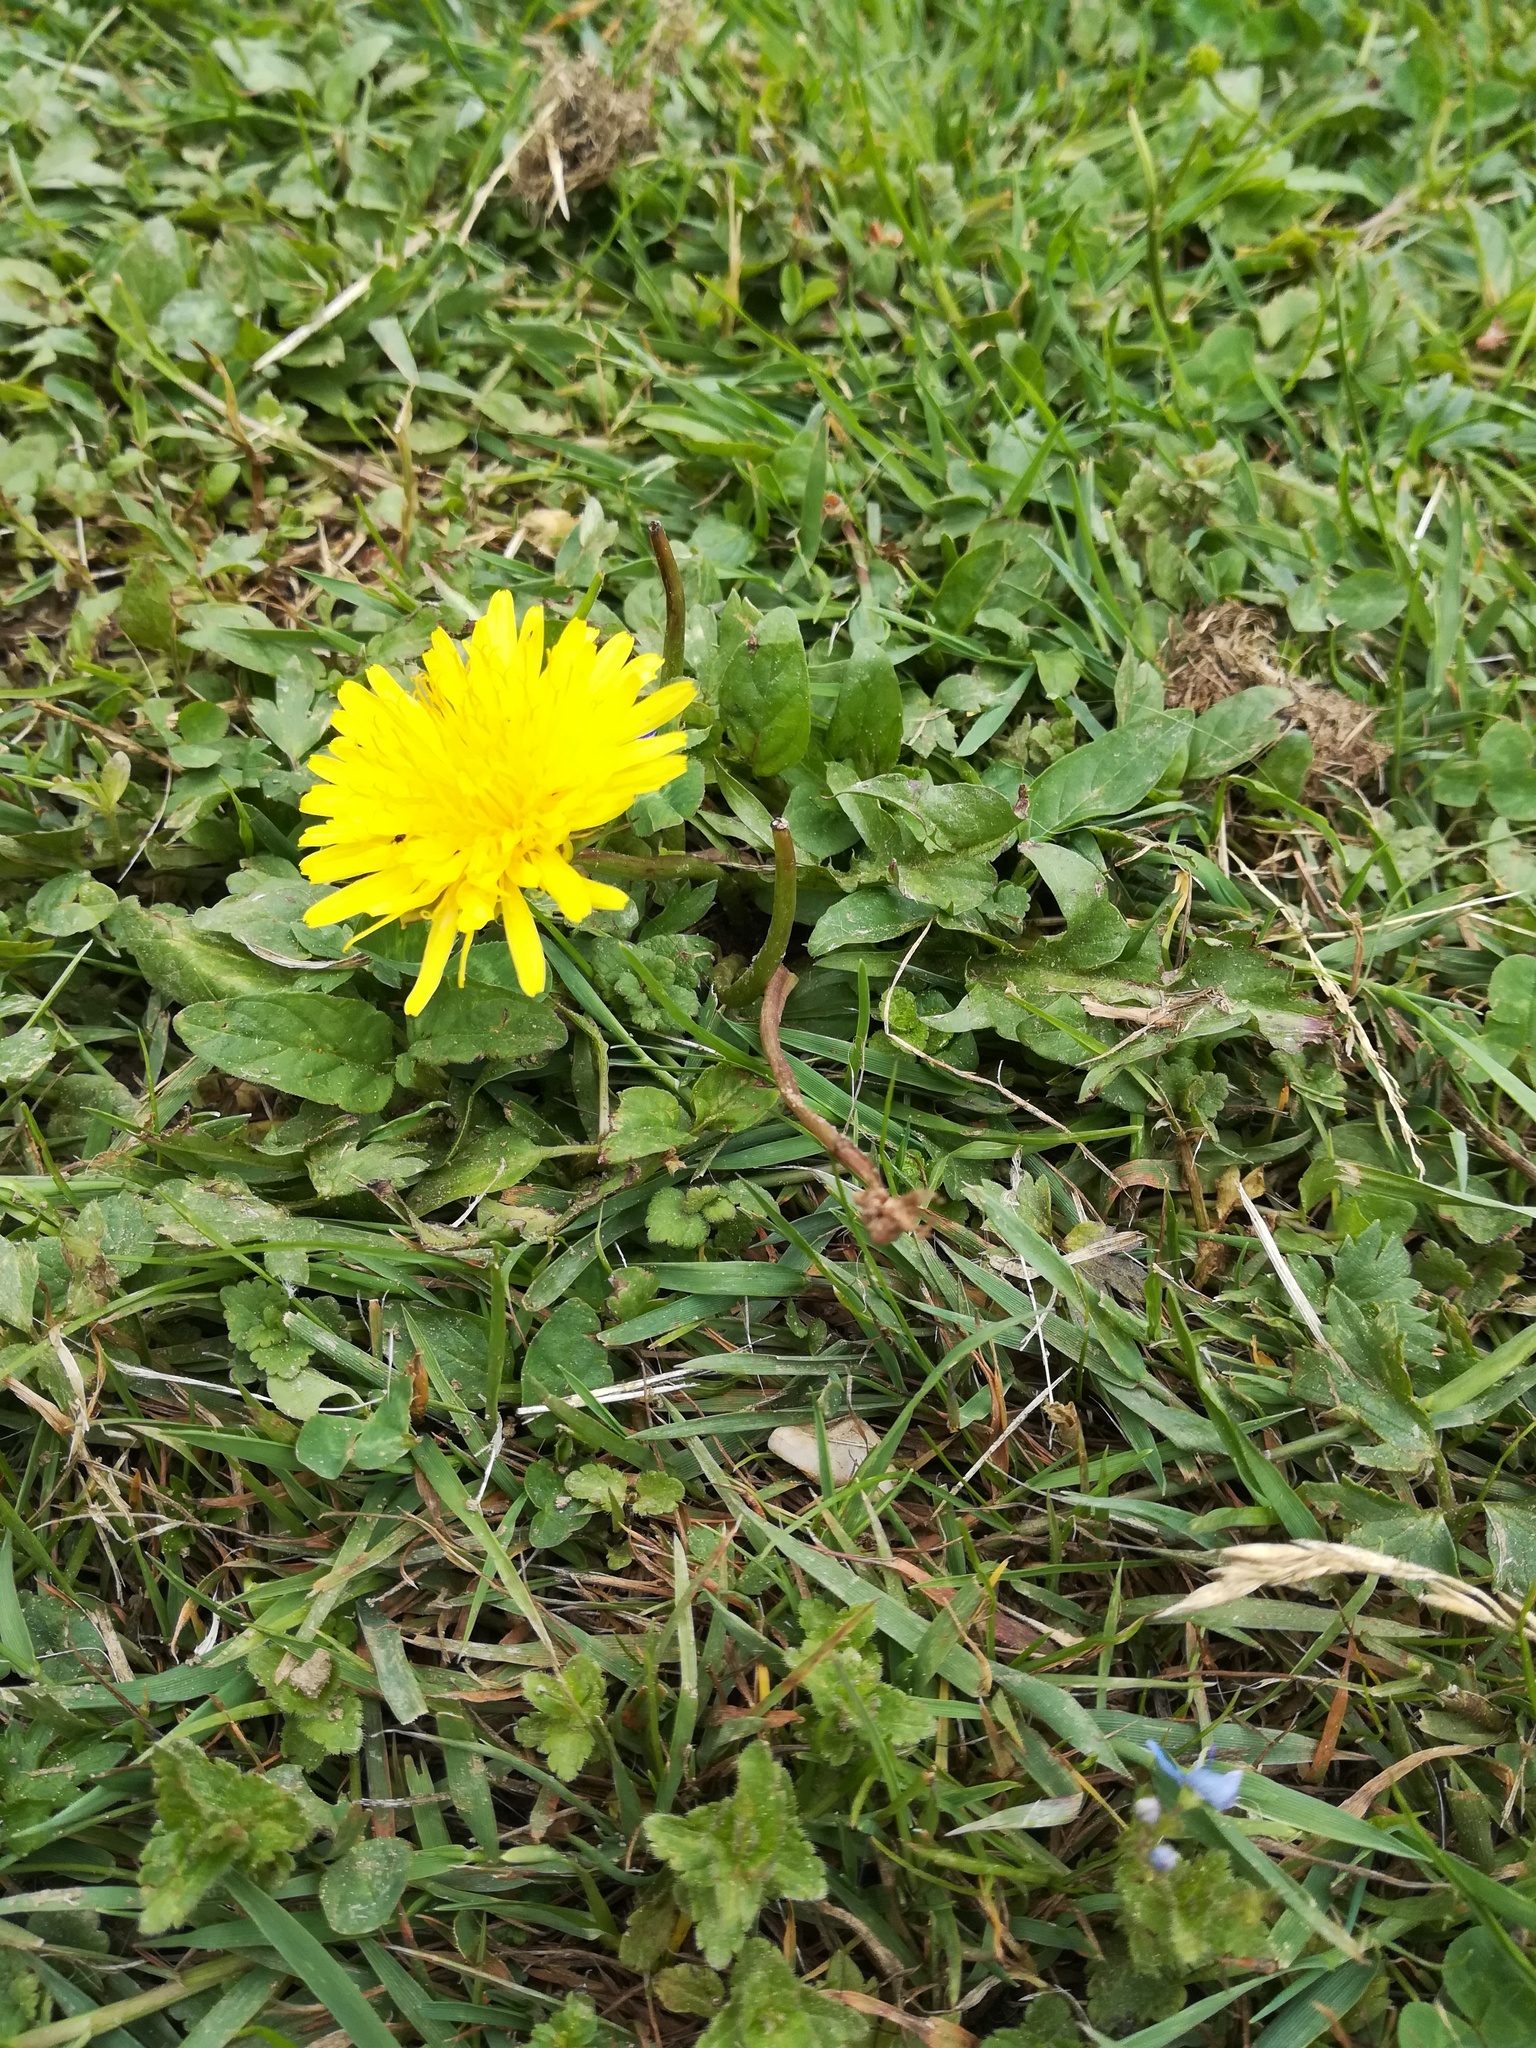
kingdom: Plantae
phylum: Tracheophyta
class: Magnoliopsida
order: Asterales
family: Asteraceae
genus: Taraxacum
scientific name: Taraxacum officinale
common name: Common dandelion
